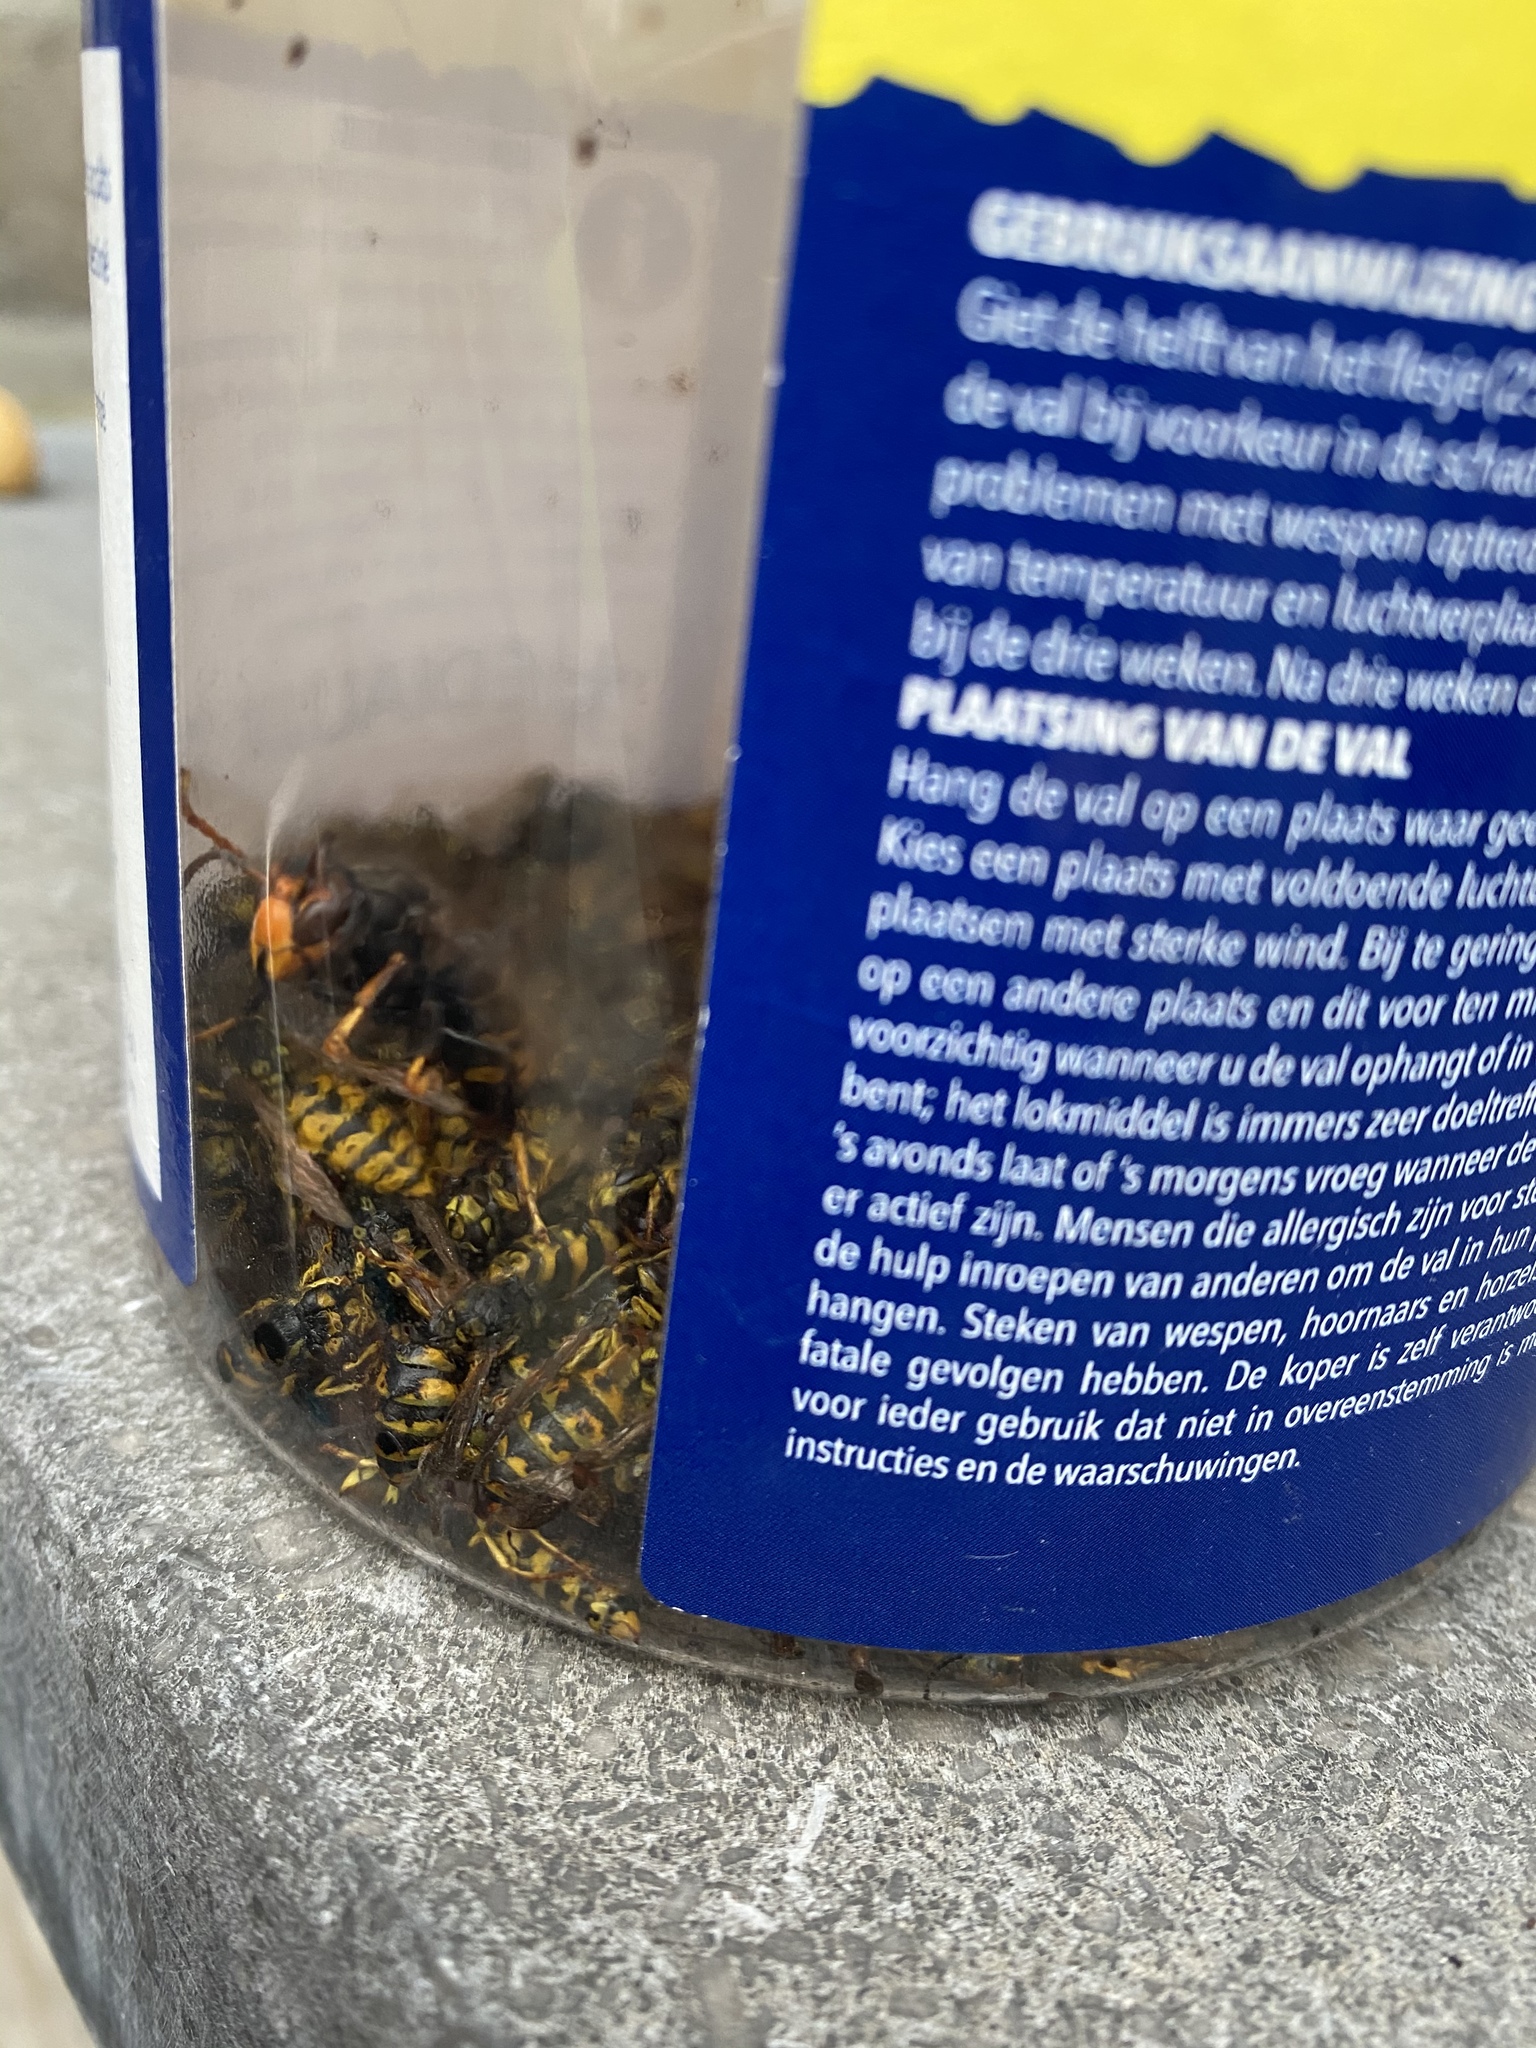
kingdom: Animalia
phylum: Arthropoda
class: Insecta
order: Hymenoptera
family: Vespidae
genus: Vespa
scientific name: Vespa velutina
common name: Asian hornet
